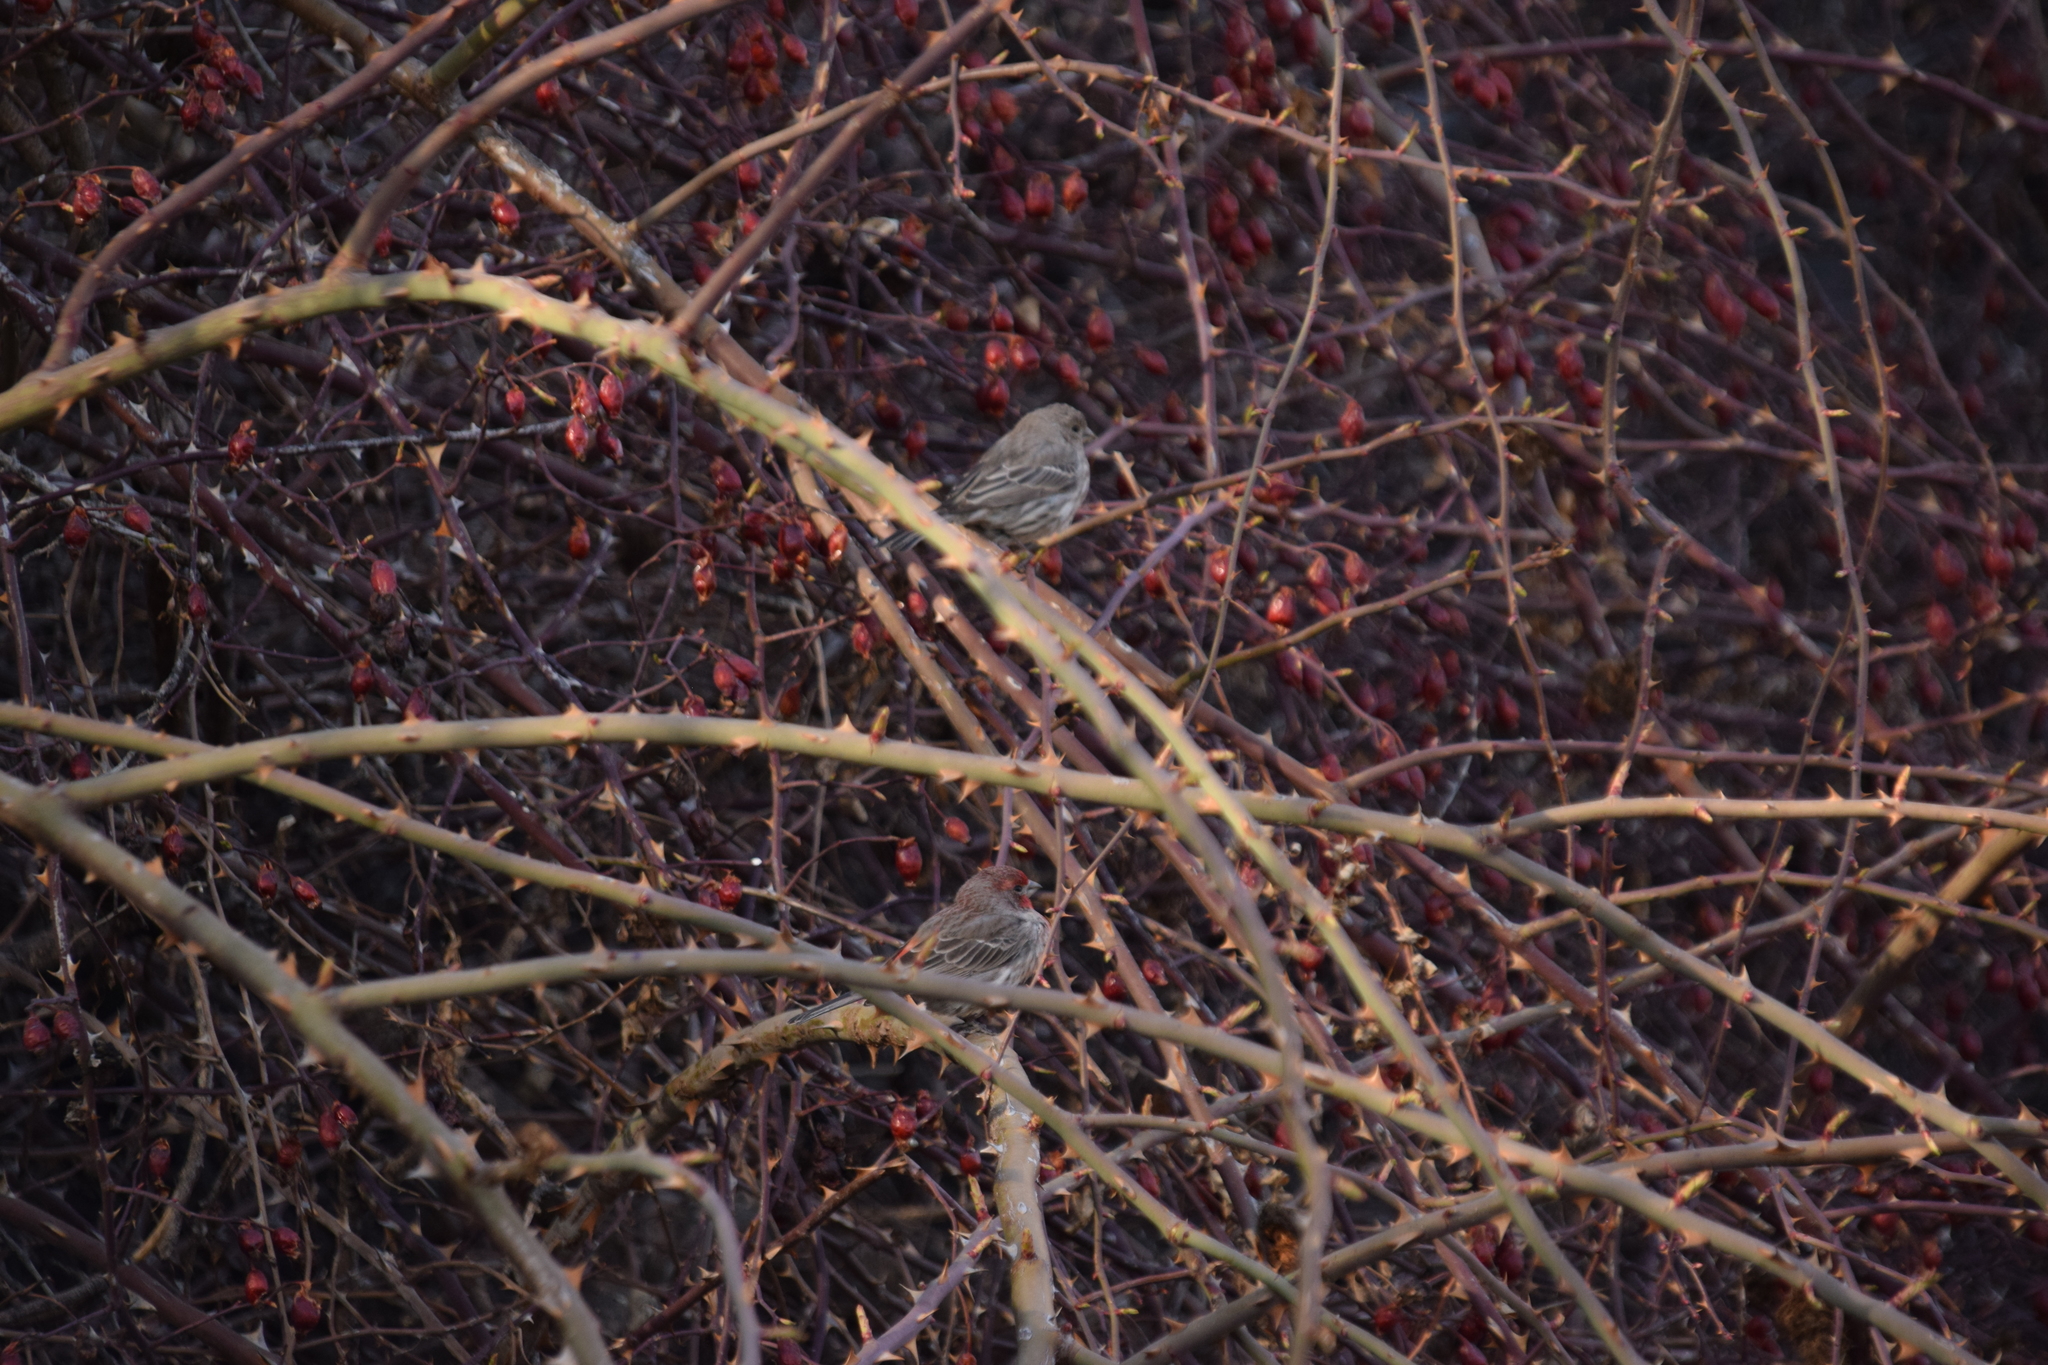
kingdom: Animalia
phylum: Chordata
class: Aves
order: Passeriformes
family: Fringillidae
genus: Haemorhous
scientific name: Haemorhous mexicanus
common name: House finch
